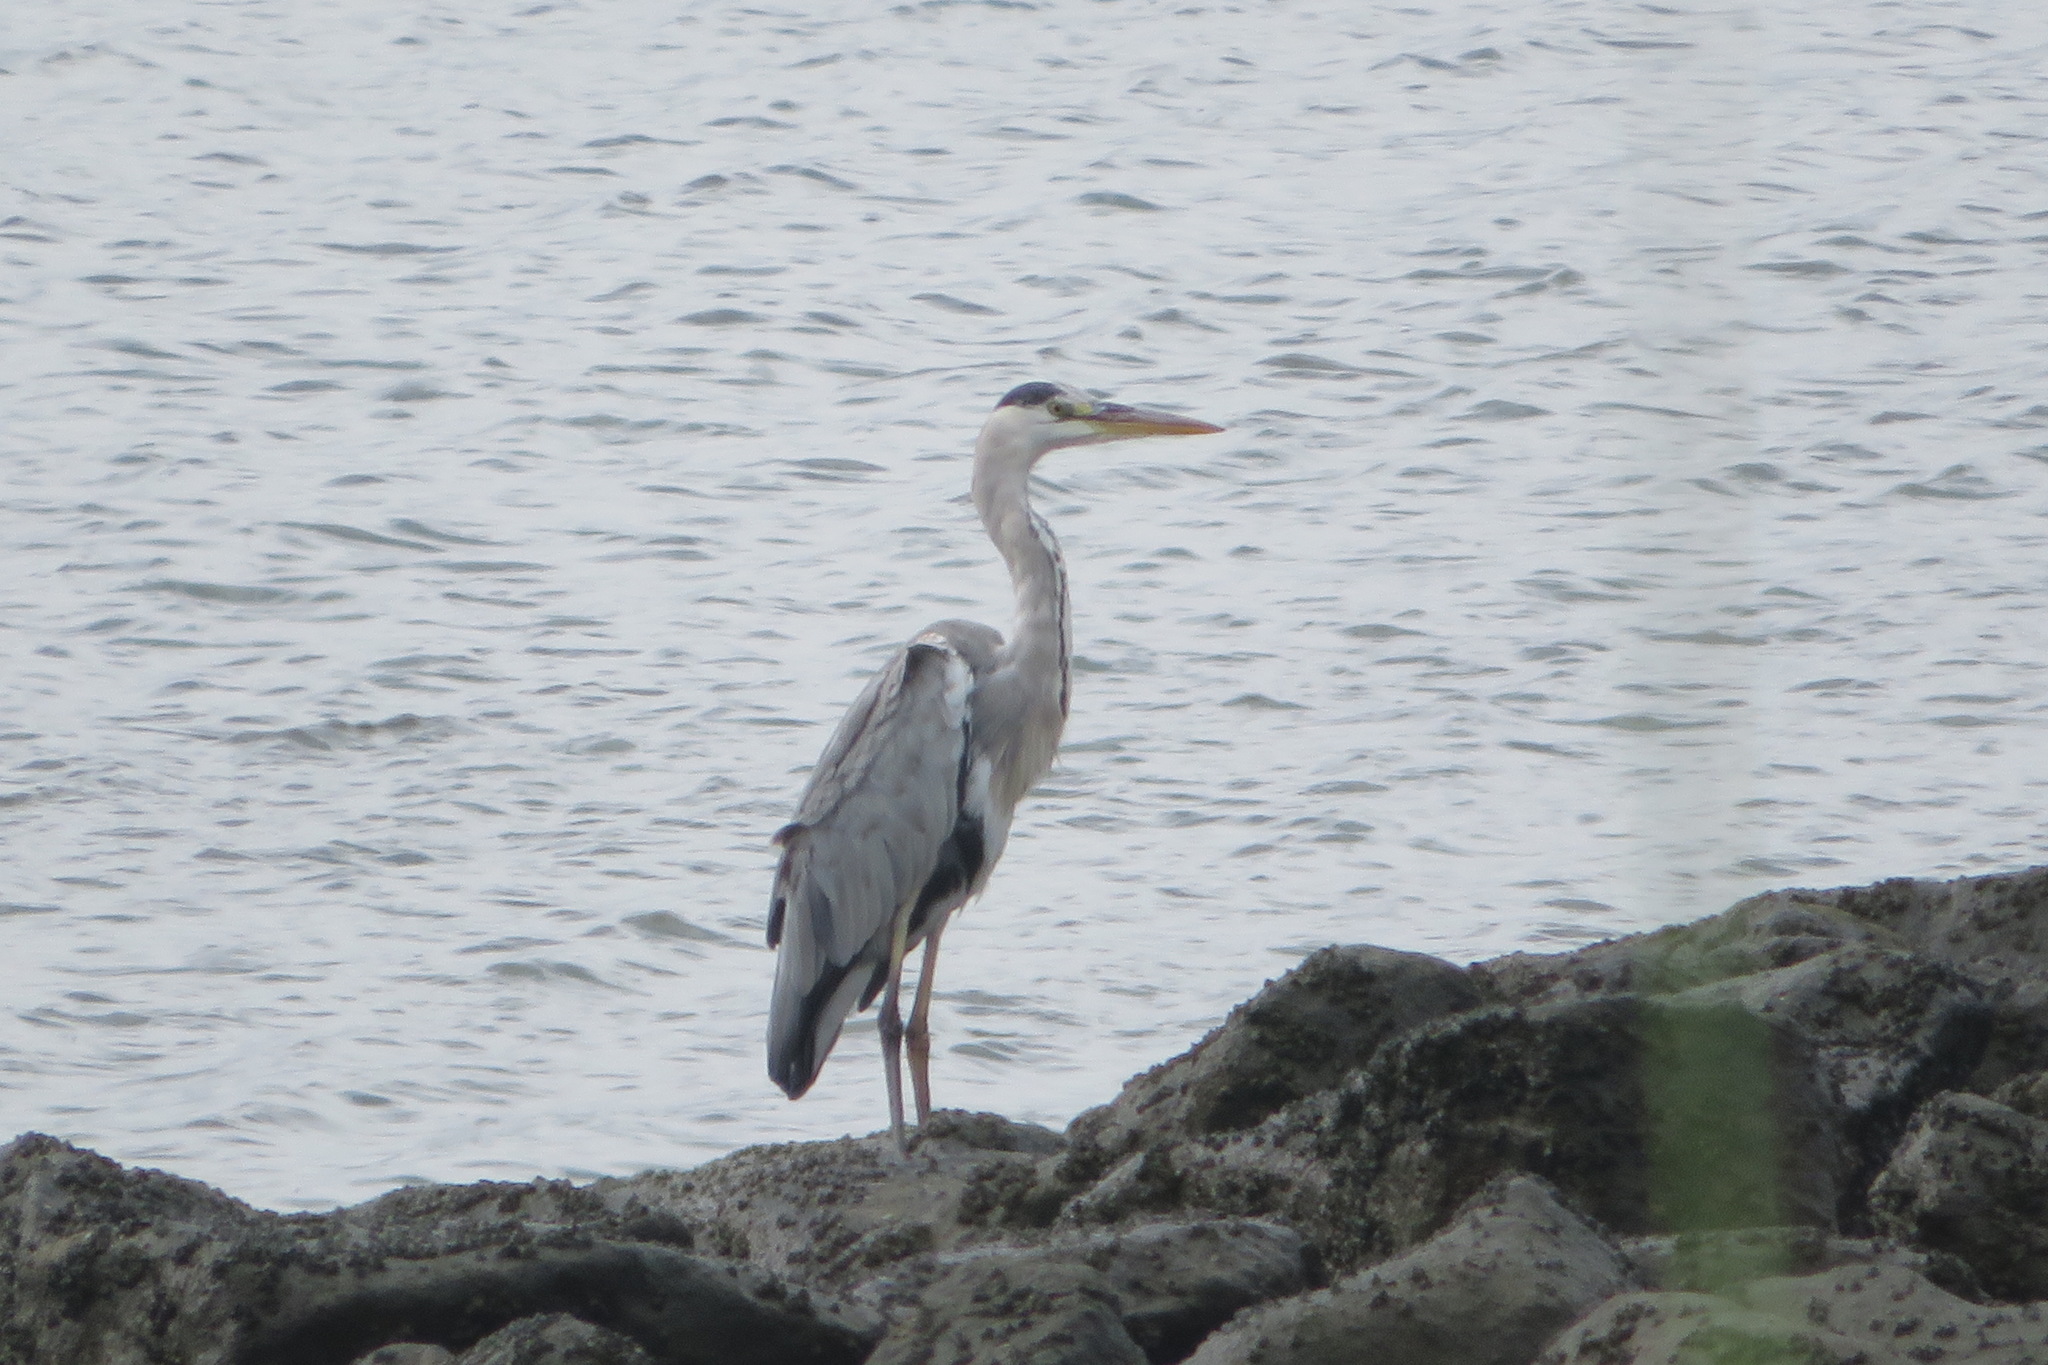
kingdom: Animalia
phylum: Chordata
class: Aves
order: Pelecaniformes
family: Ardeidae
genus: Ardea
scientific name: Ardea cinerea
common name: Grey heron
